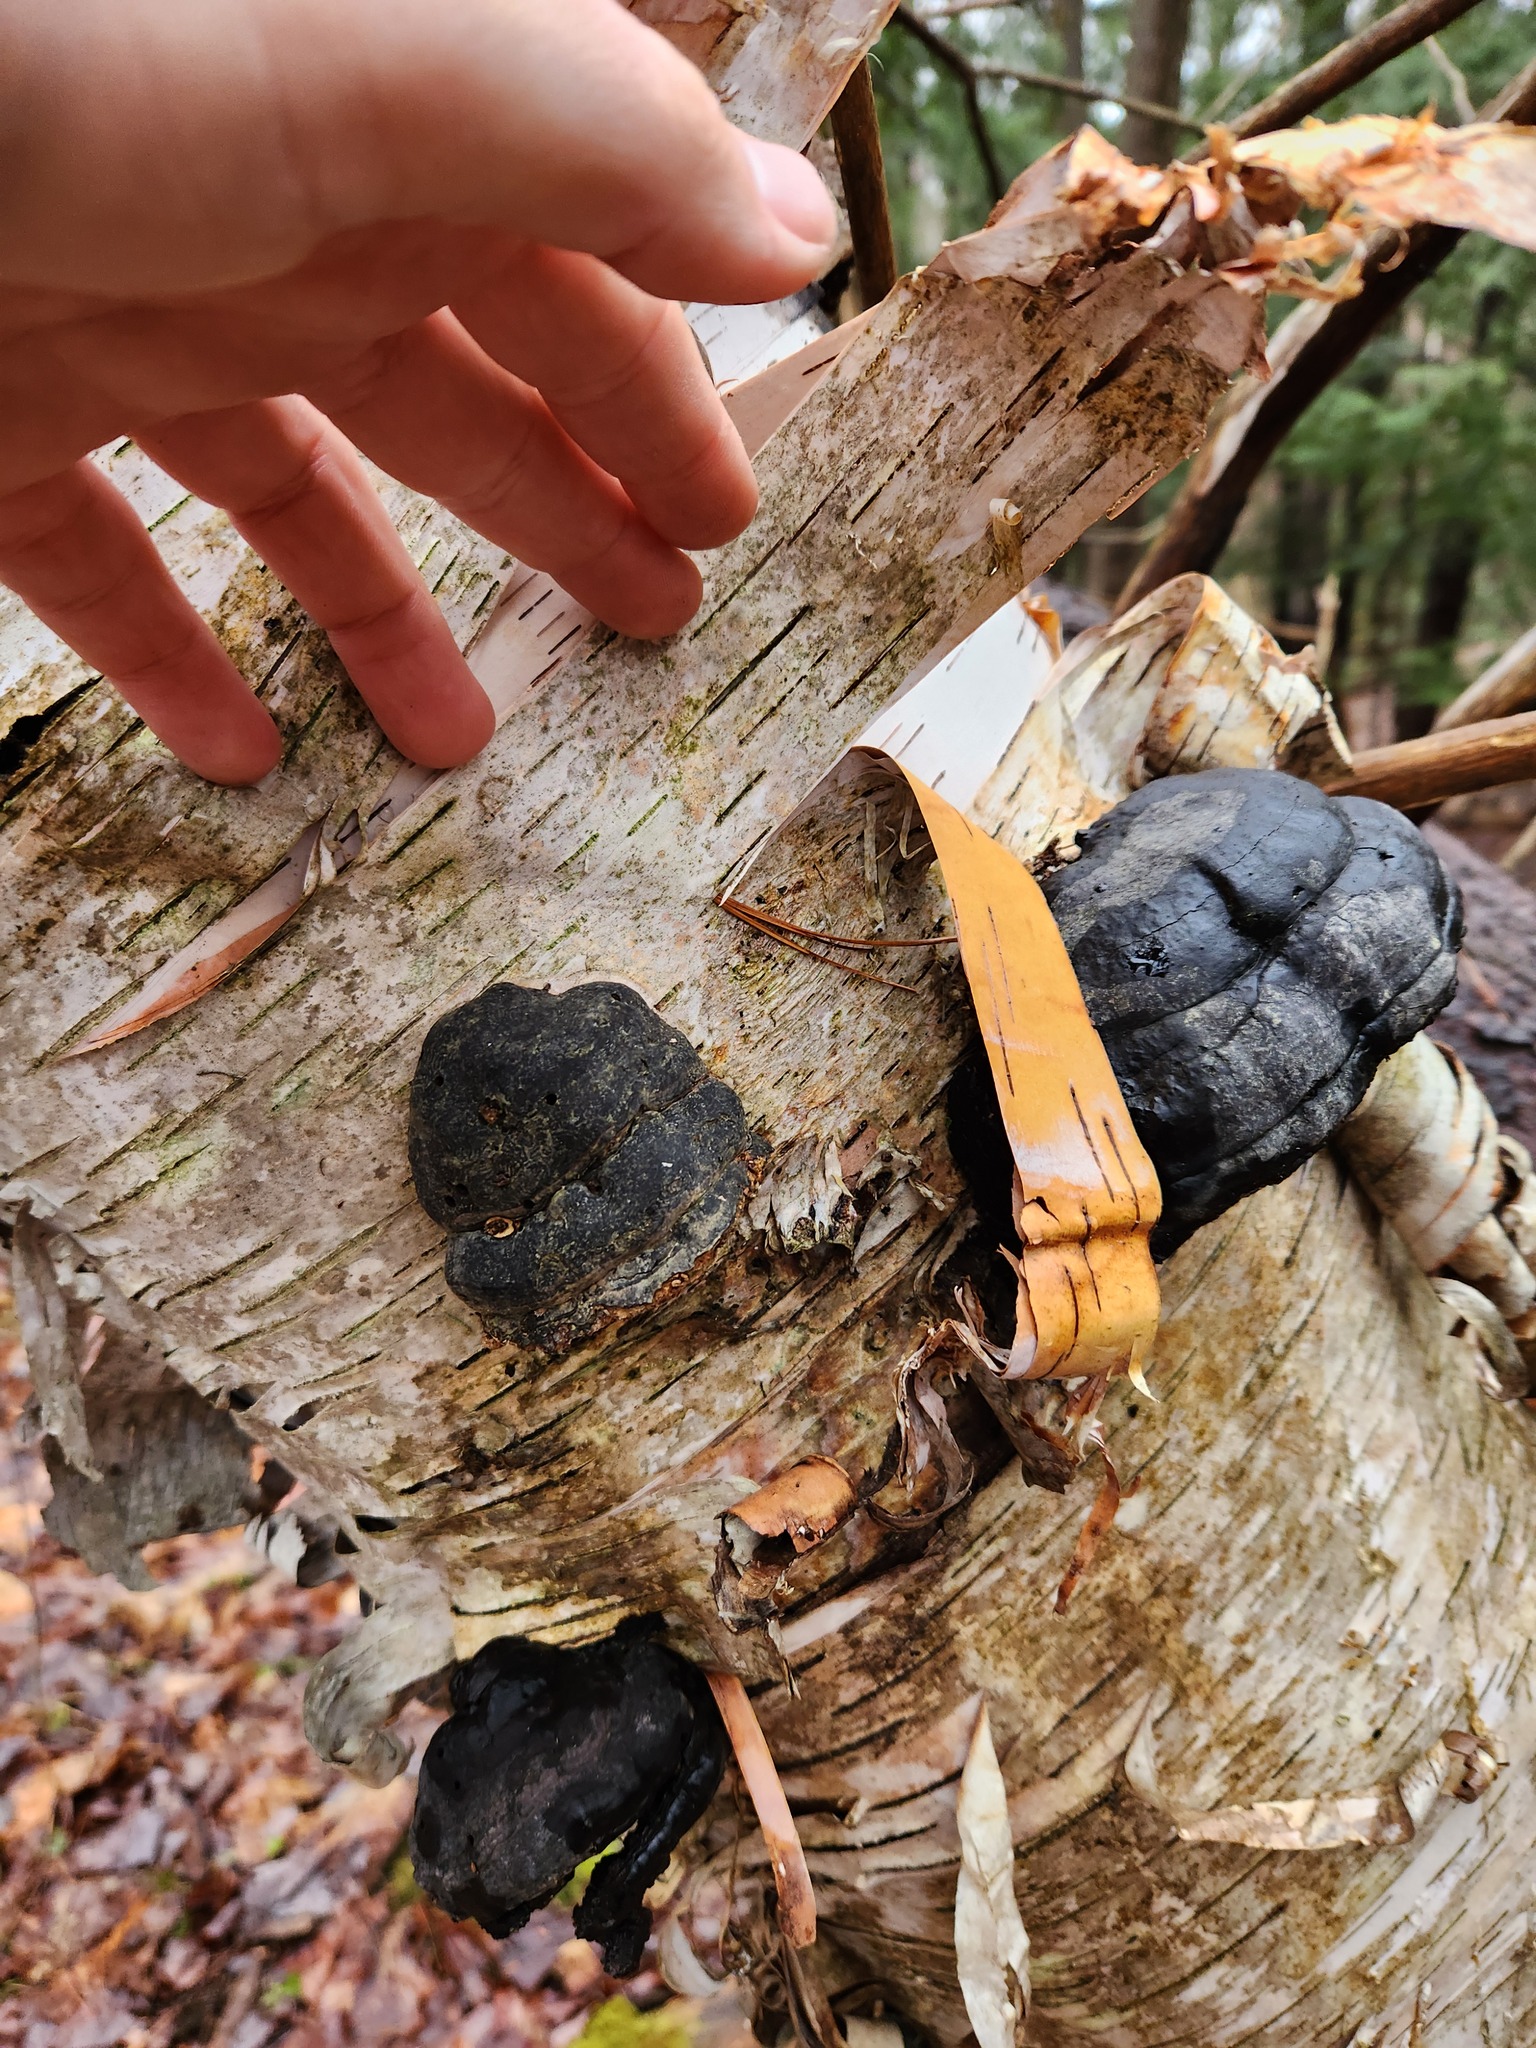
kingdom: Fungi
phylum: Basidiomycota
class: Agaricomycetes
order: Polyporales
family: Polyporaceae
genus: Fomes
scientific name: Fomes fomentarius
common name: Hoof fungus
